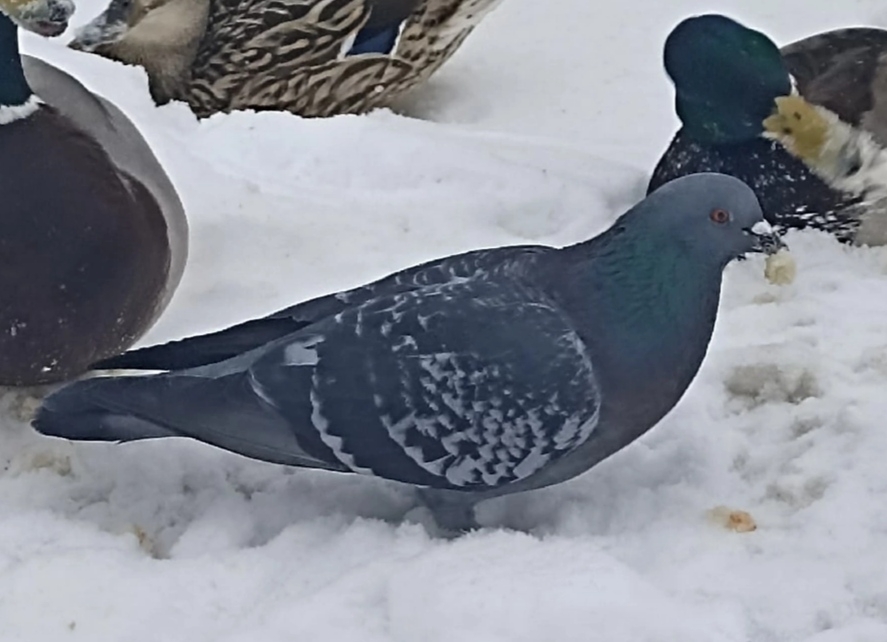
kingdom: Animalia
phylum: Chordata
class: Aves
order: Columbiformes
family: Columbidae
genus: Columba
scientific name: Columba livia
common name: Rock pigeon
